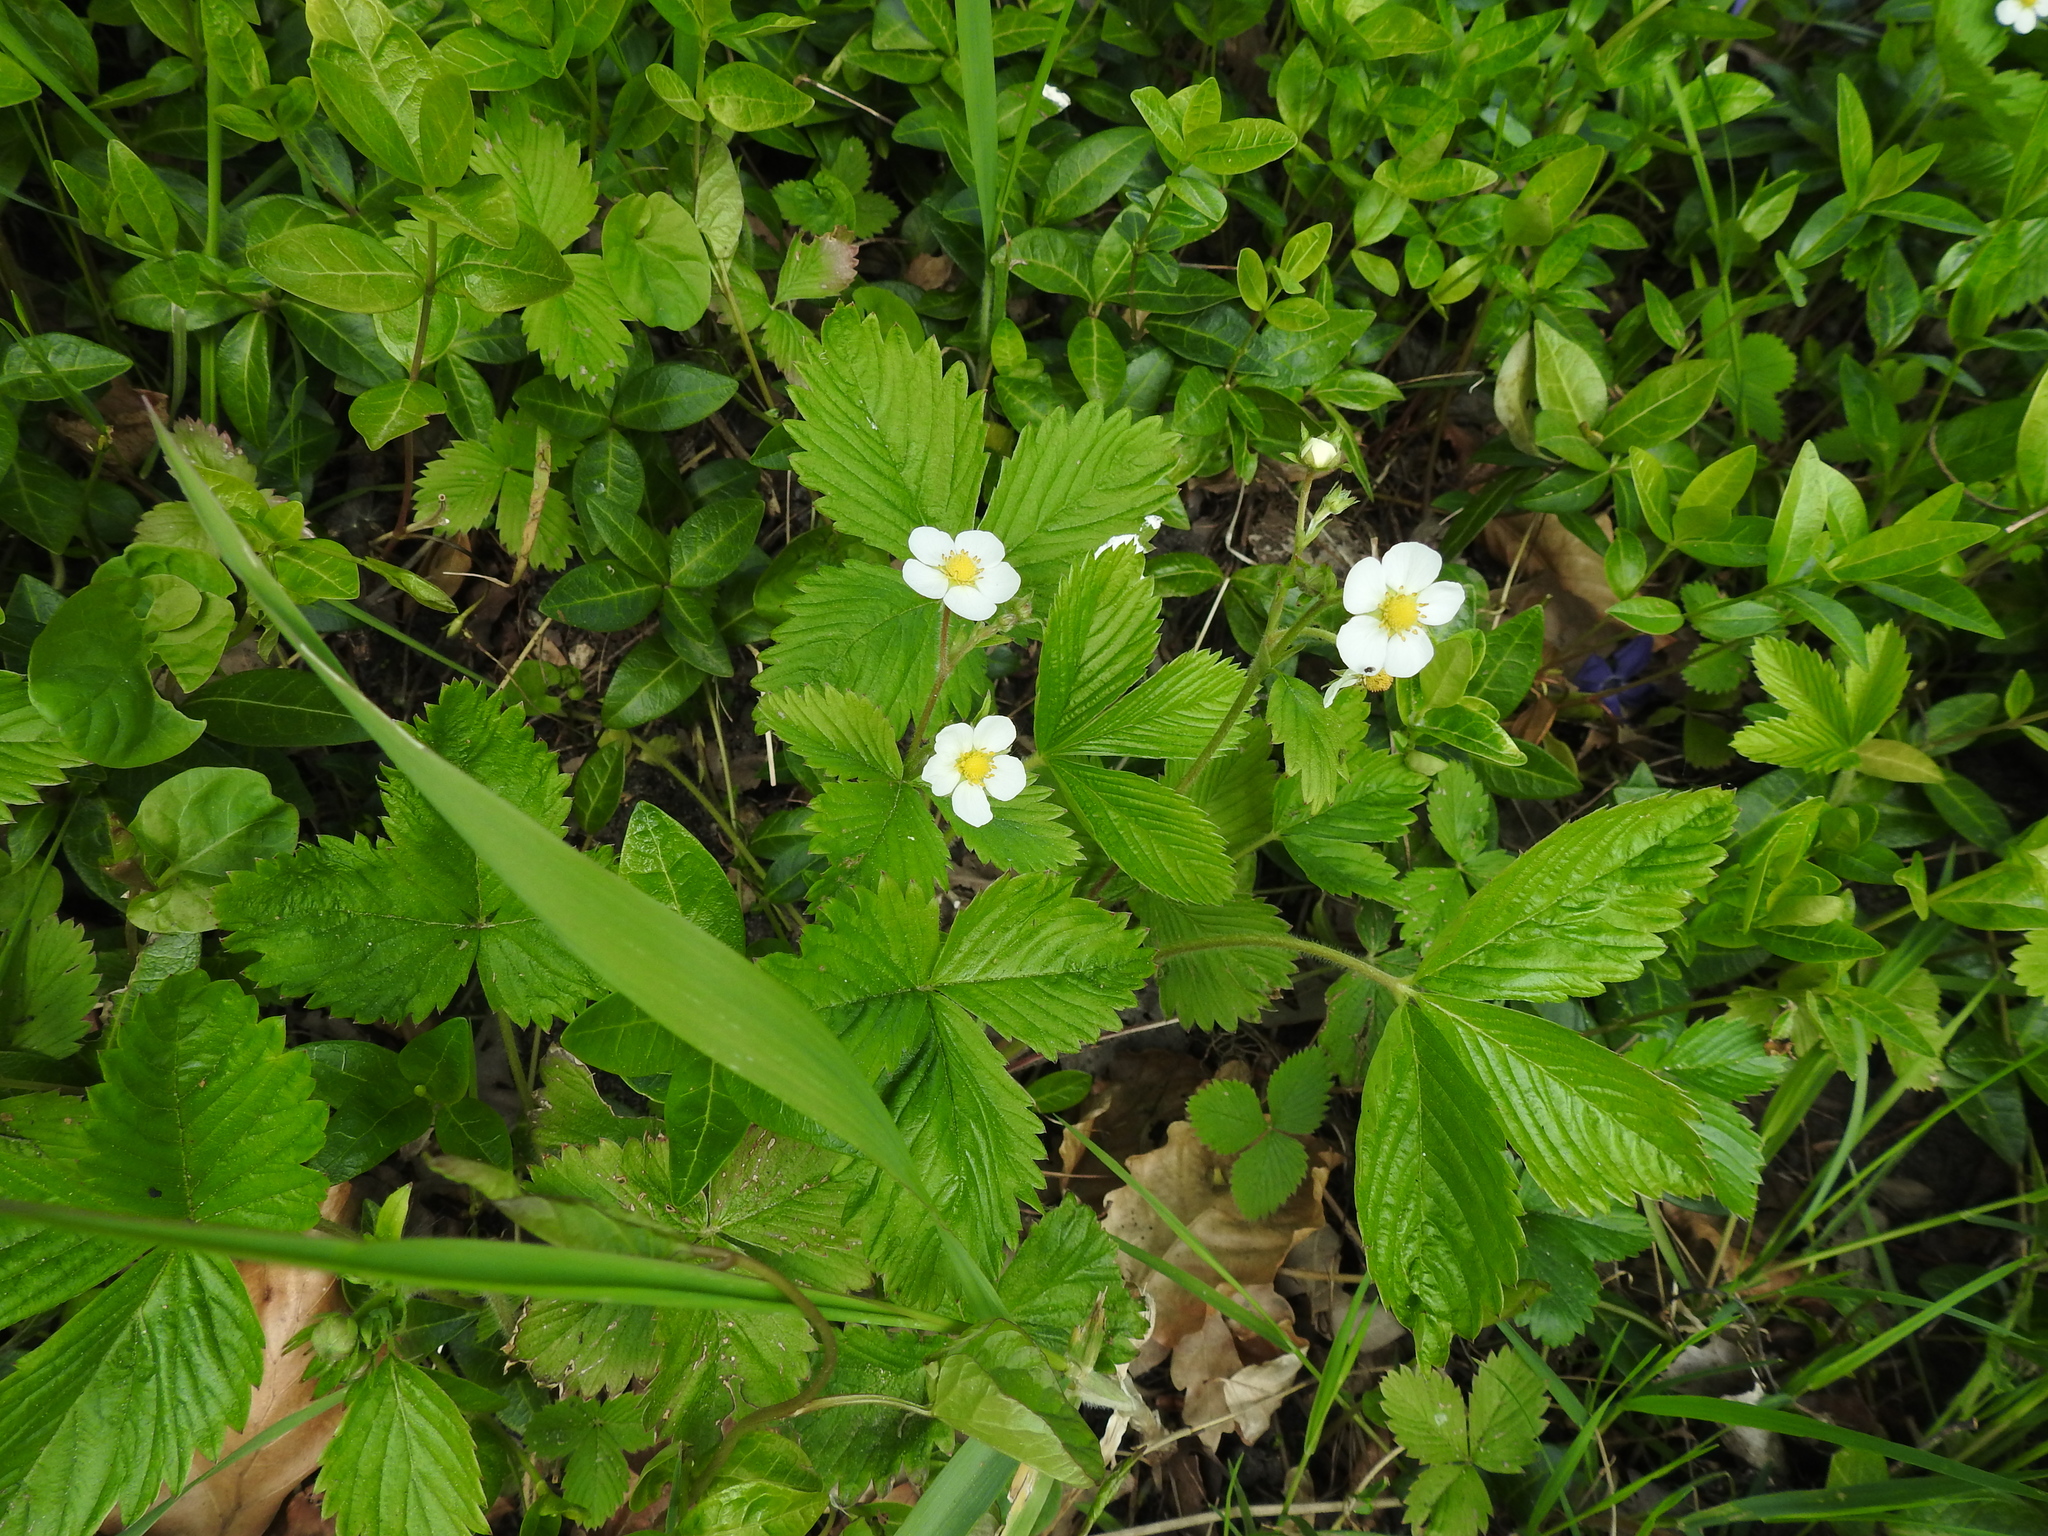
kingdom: Plantae
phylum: Tracheophyta
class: Magnoliopsida
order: Rosales
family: Rosaceae
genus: Fragaria
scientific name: Fragaria vesca
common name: Wild strawberry
